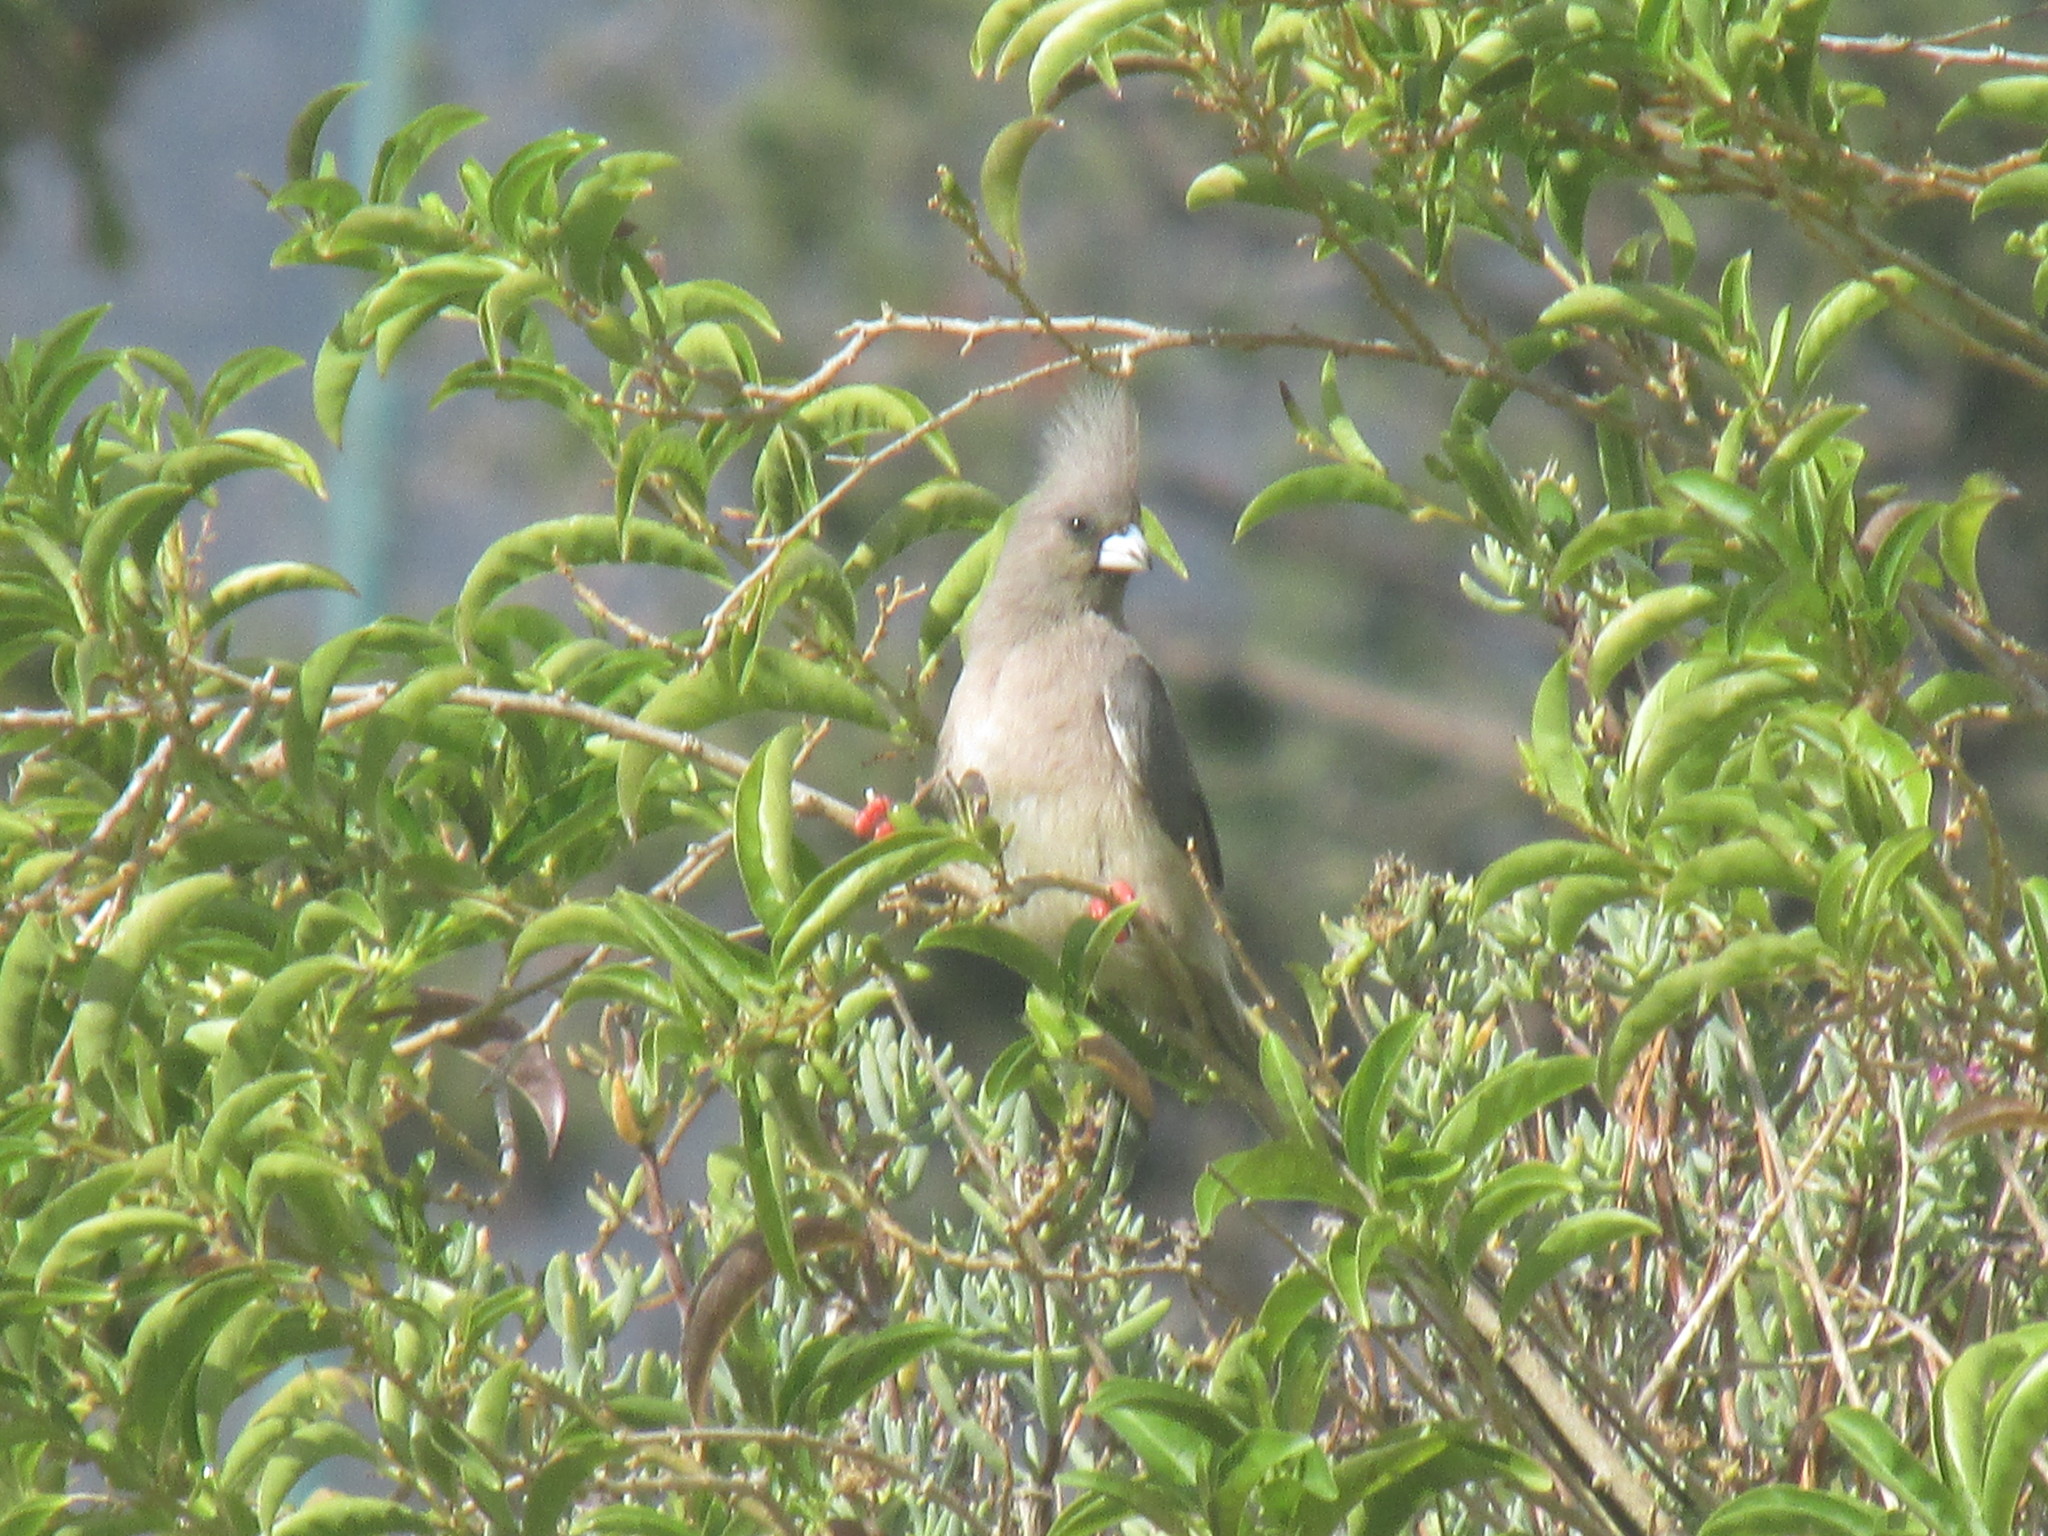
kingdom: Animalia
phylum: Chordata
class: Aves
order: Coliiformes
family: Coliidae
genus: Colius
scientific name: Colius colius
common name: White-backed mousebird
